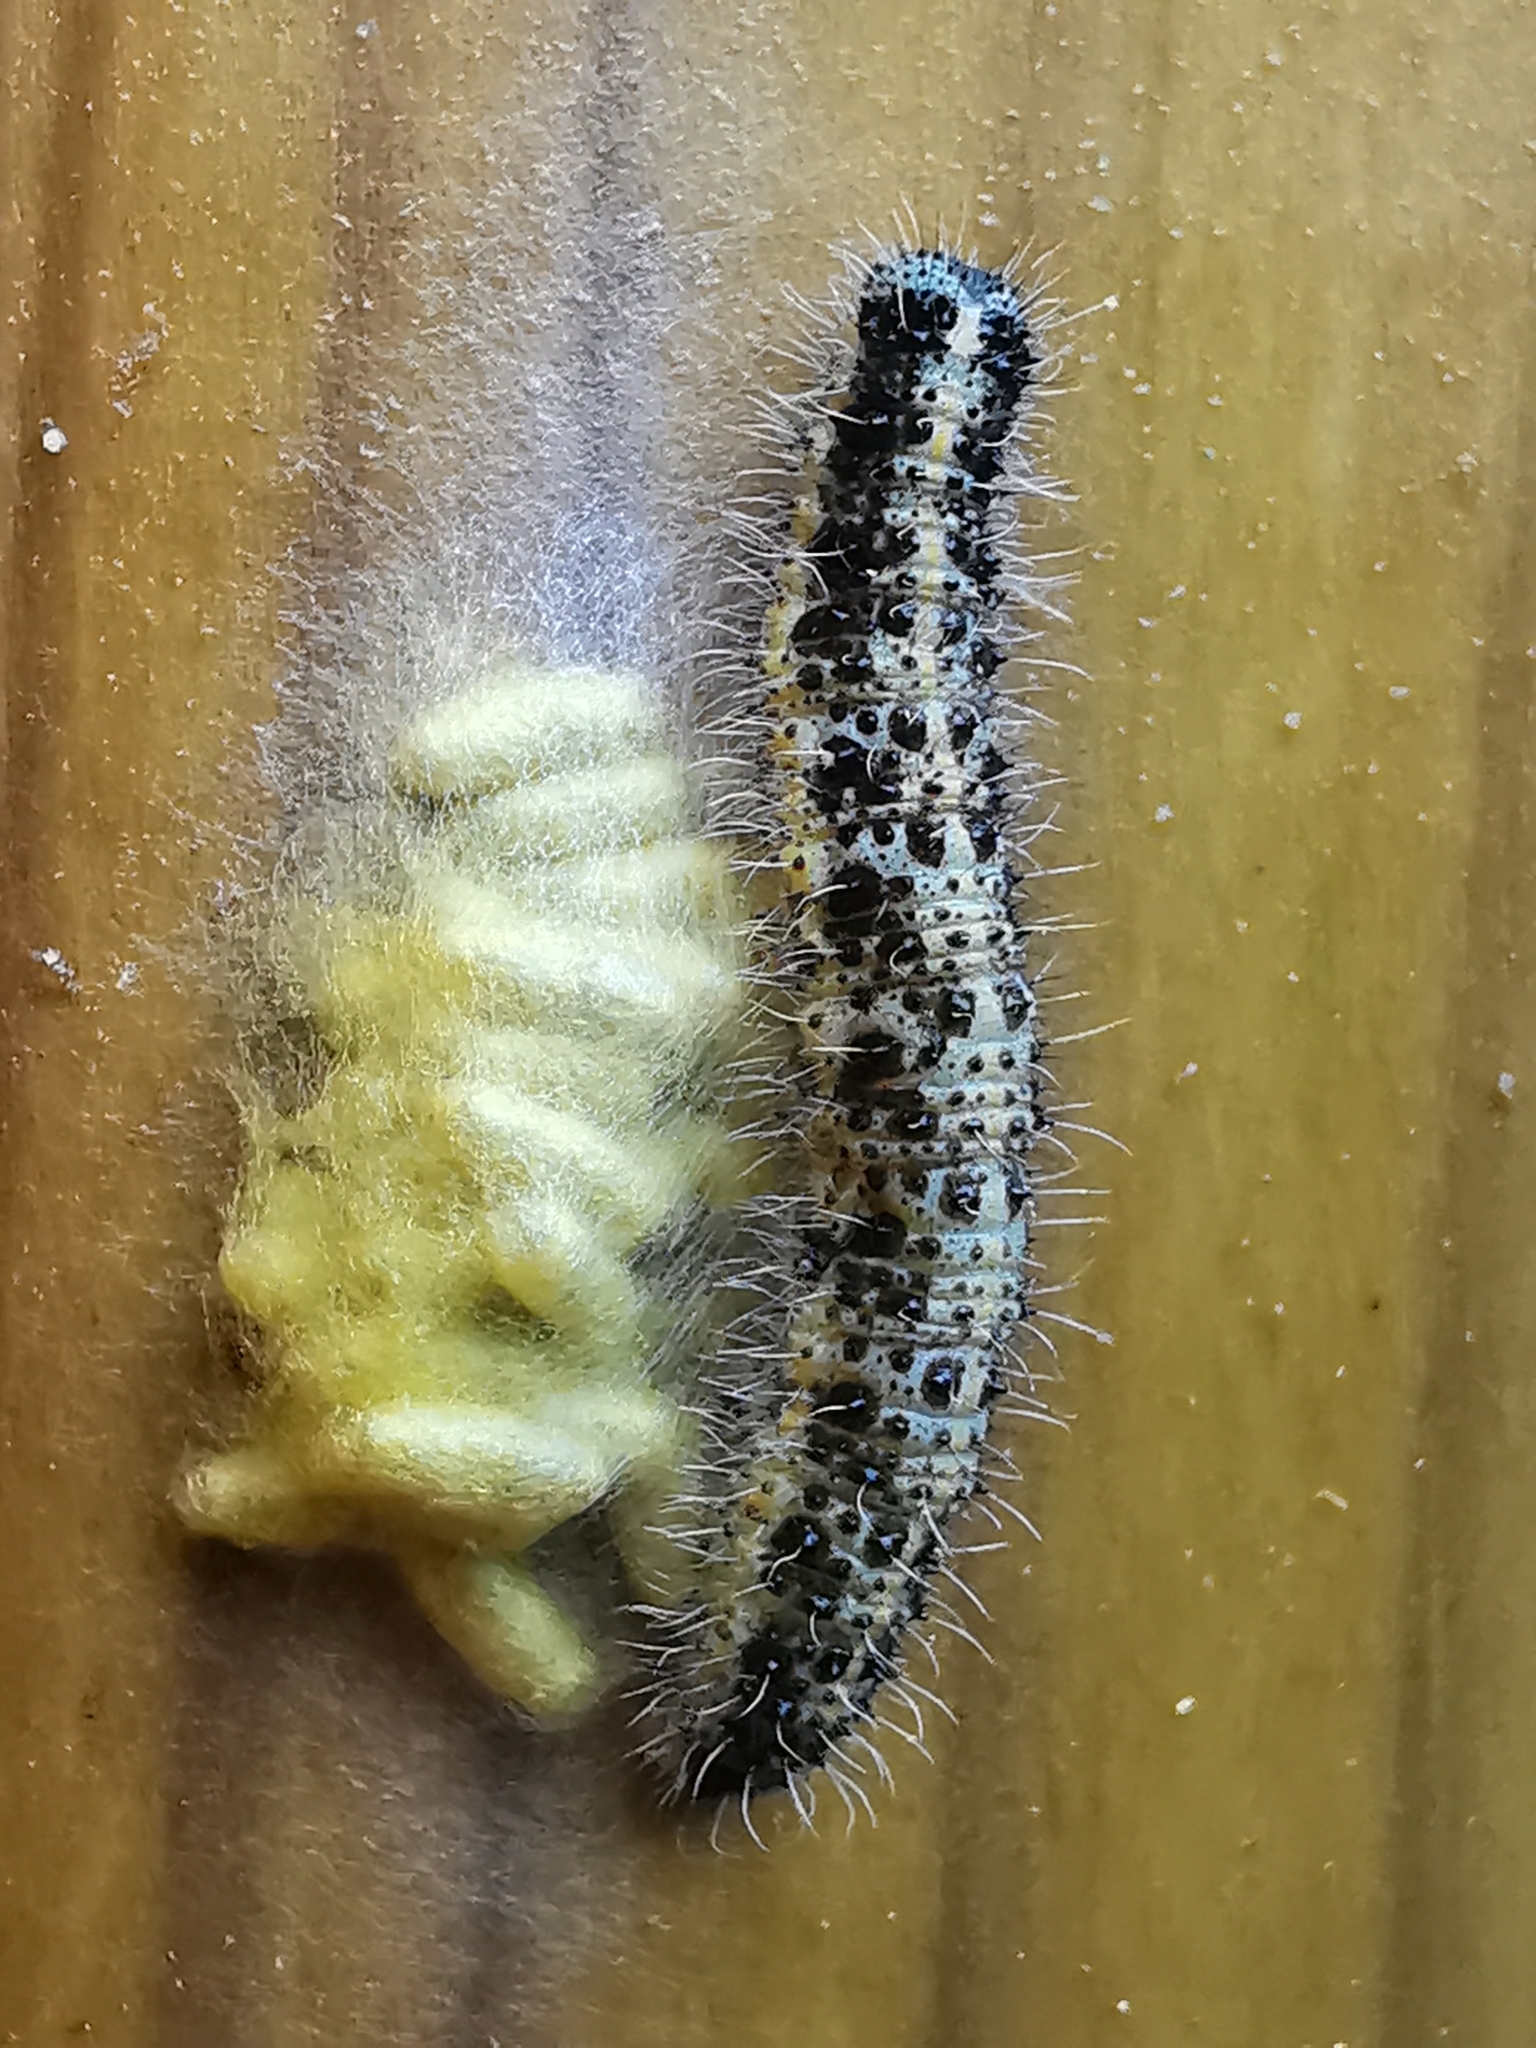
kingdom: Animalia
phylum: Arthropoda
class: Insecta
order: Lepidoptera
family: Pieridae
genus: Pieris
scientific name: Pieris brassicae
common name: Large white
